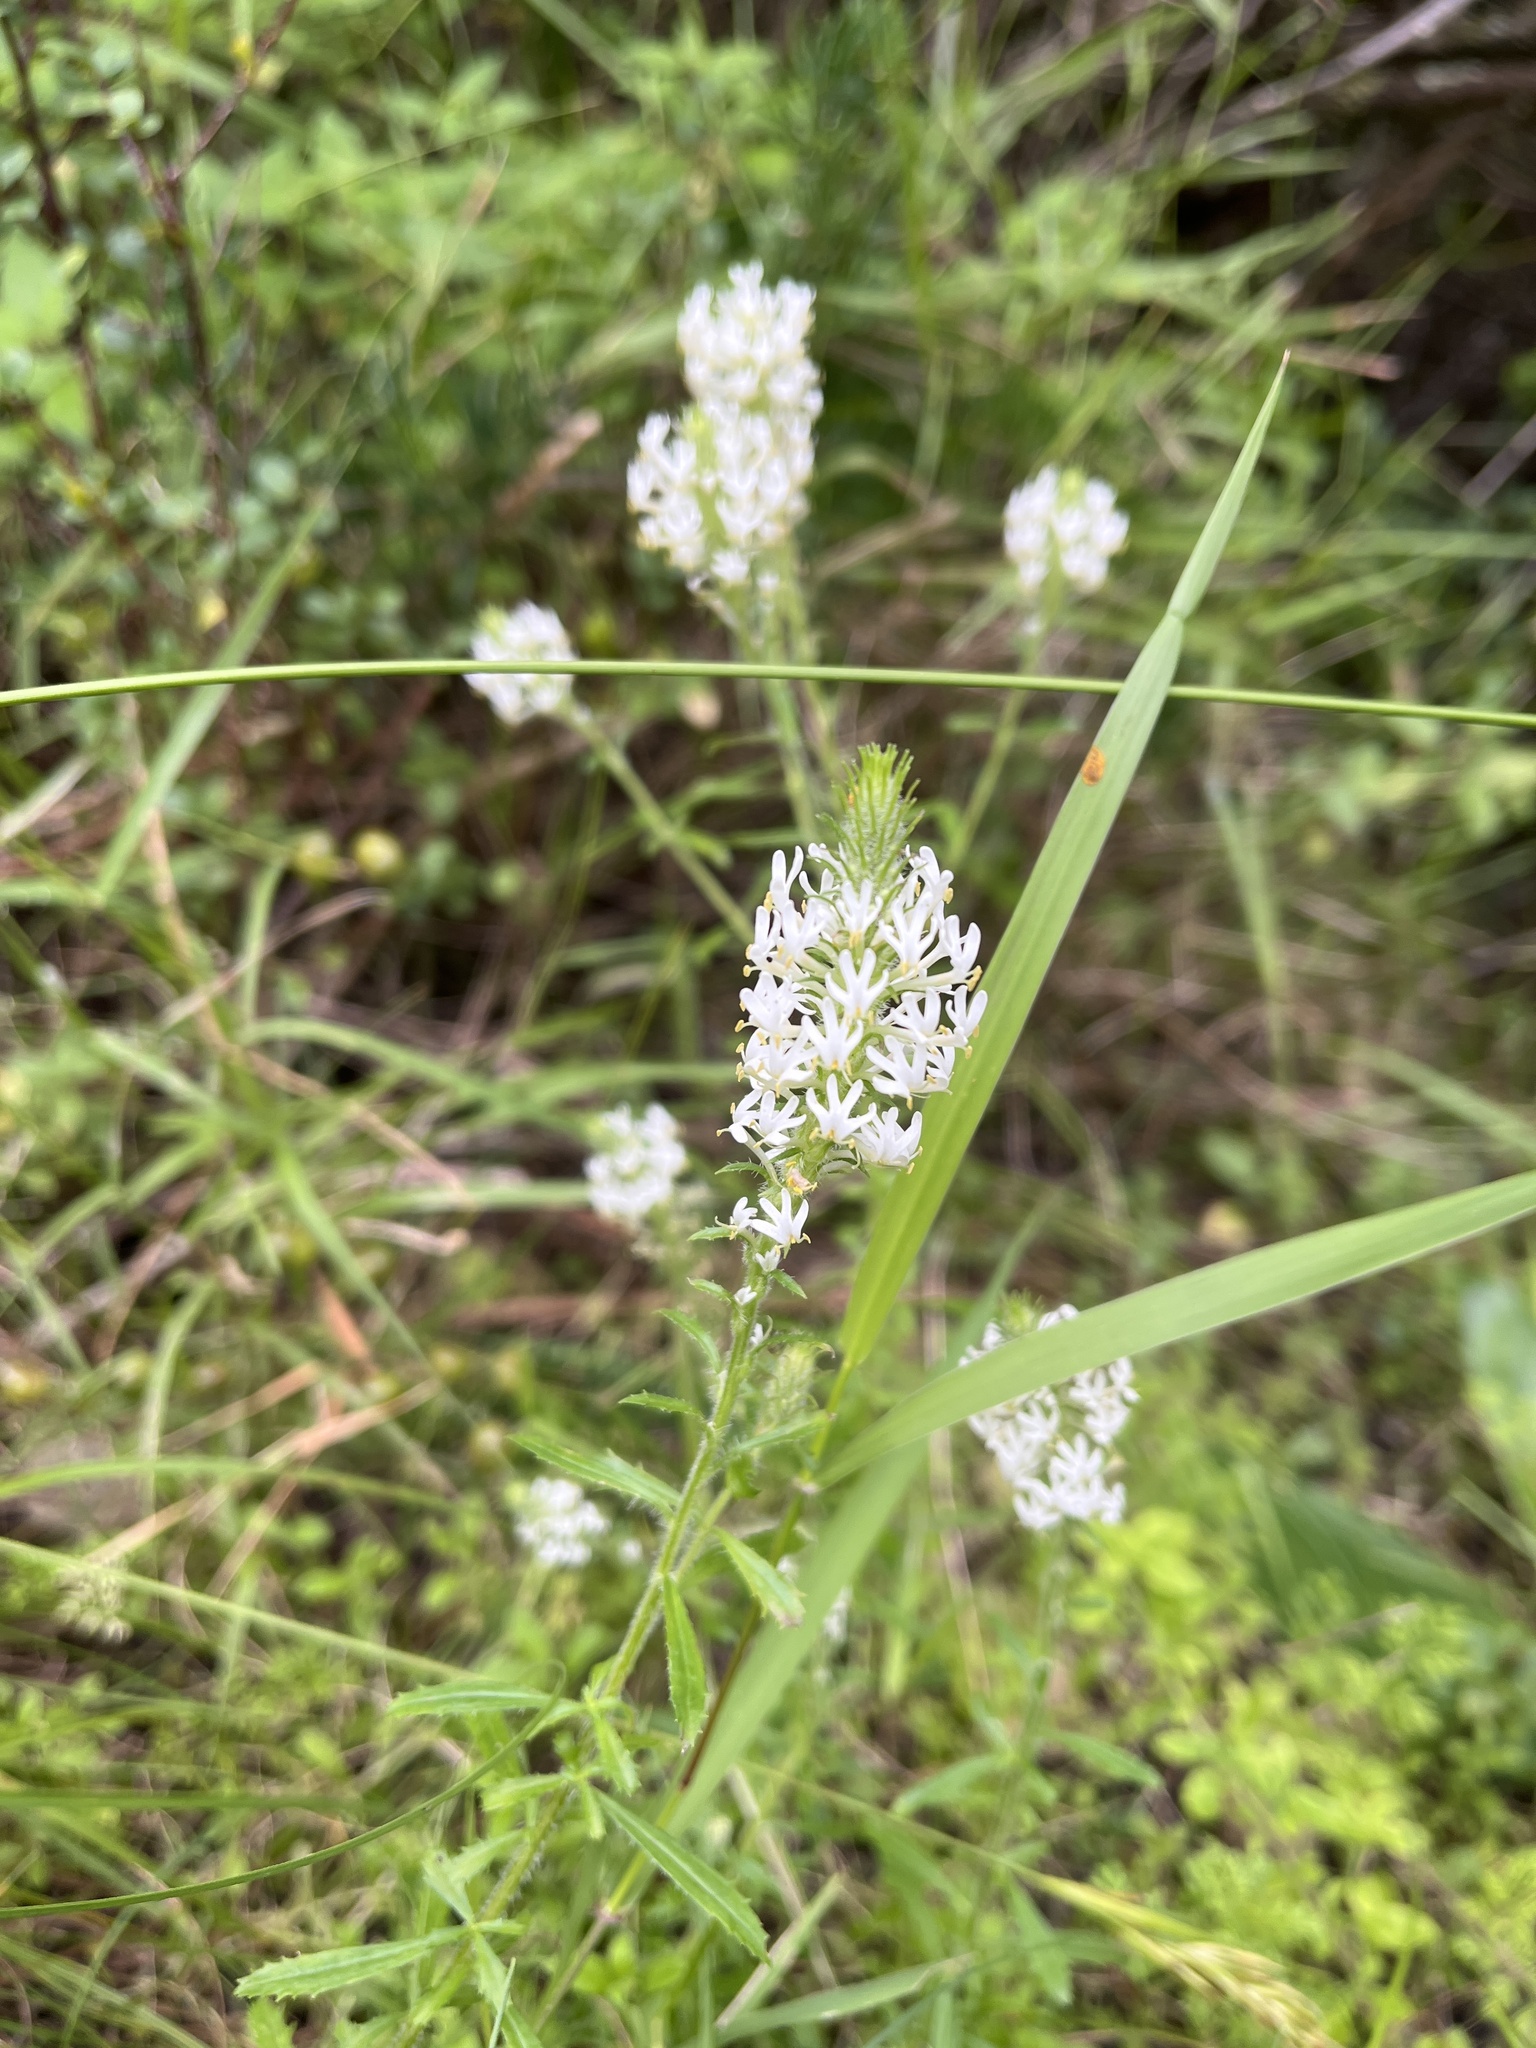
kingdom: Plantae
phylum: Tracheophyta
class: Magnoliopsida
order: Lamiales
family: Scrophulariaceae
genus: Dischisma
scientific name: Dischisma ciliatum
